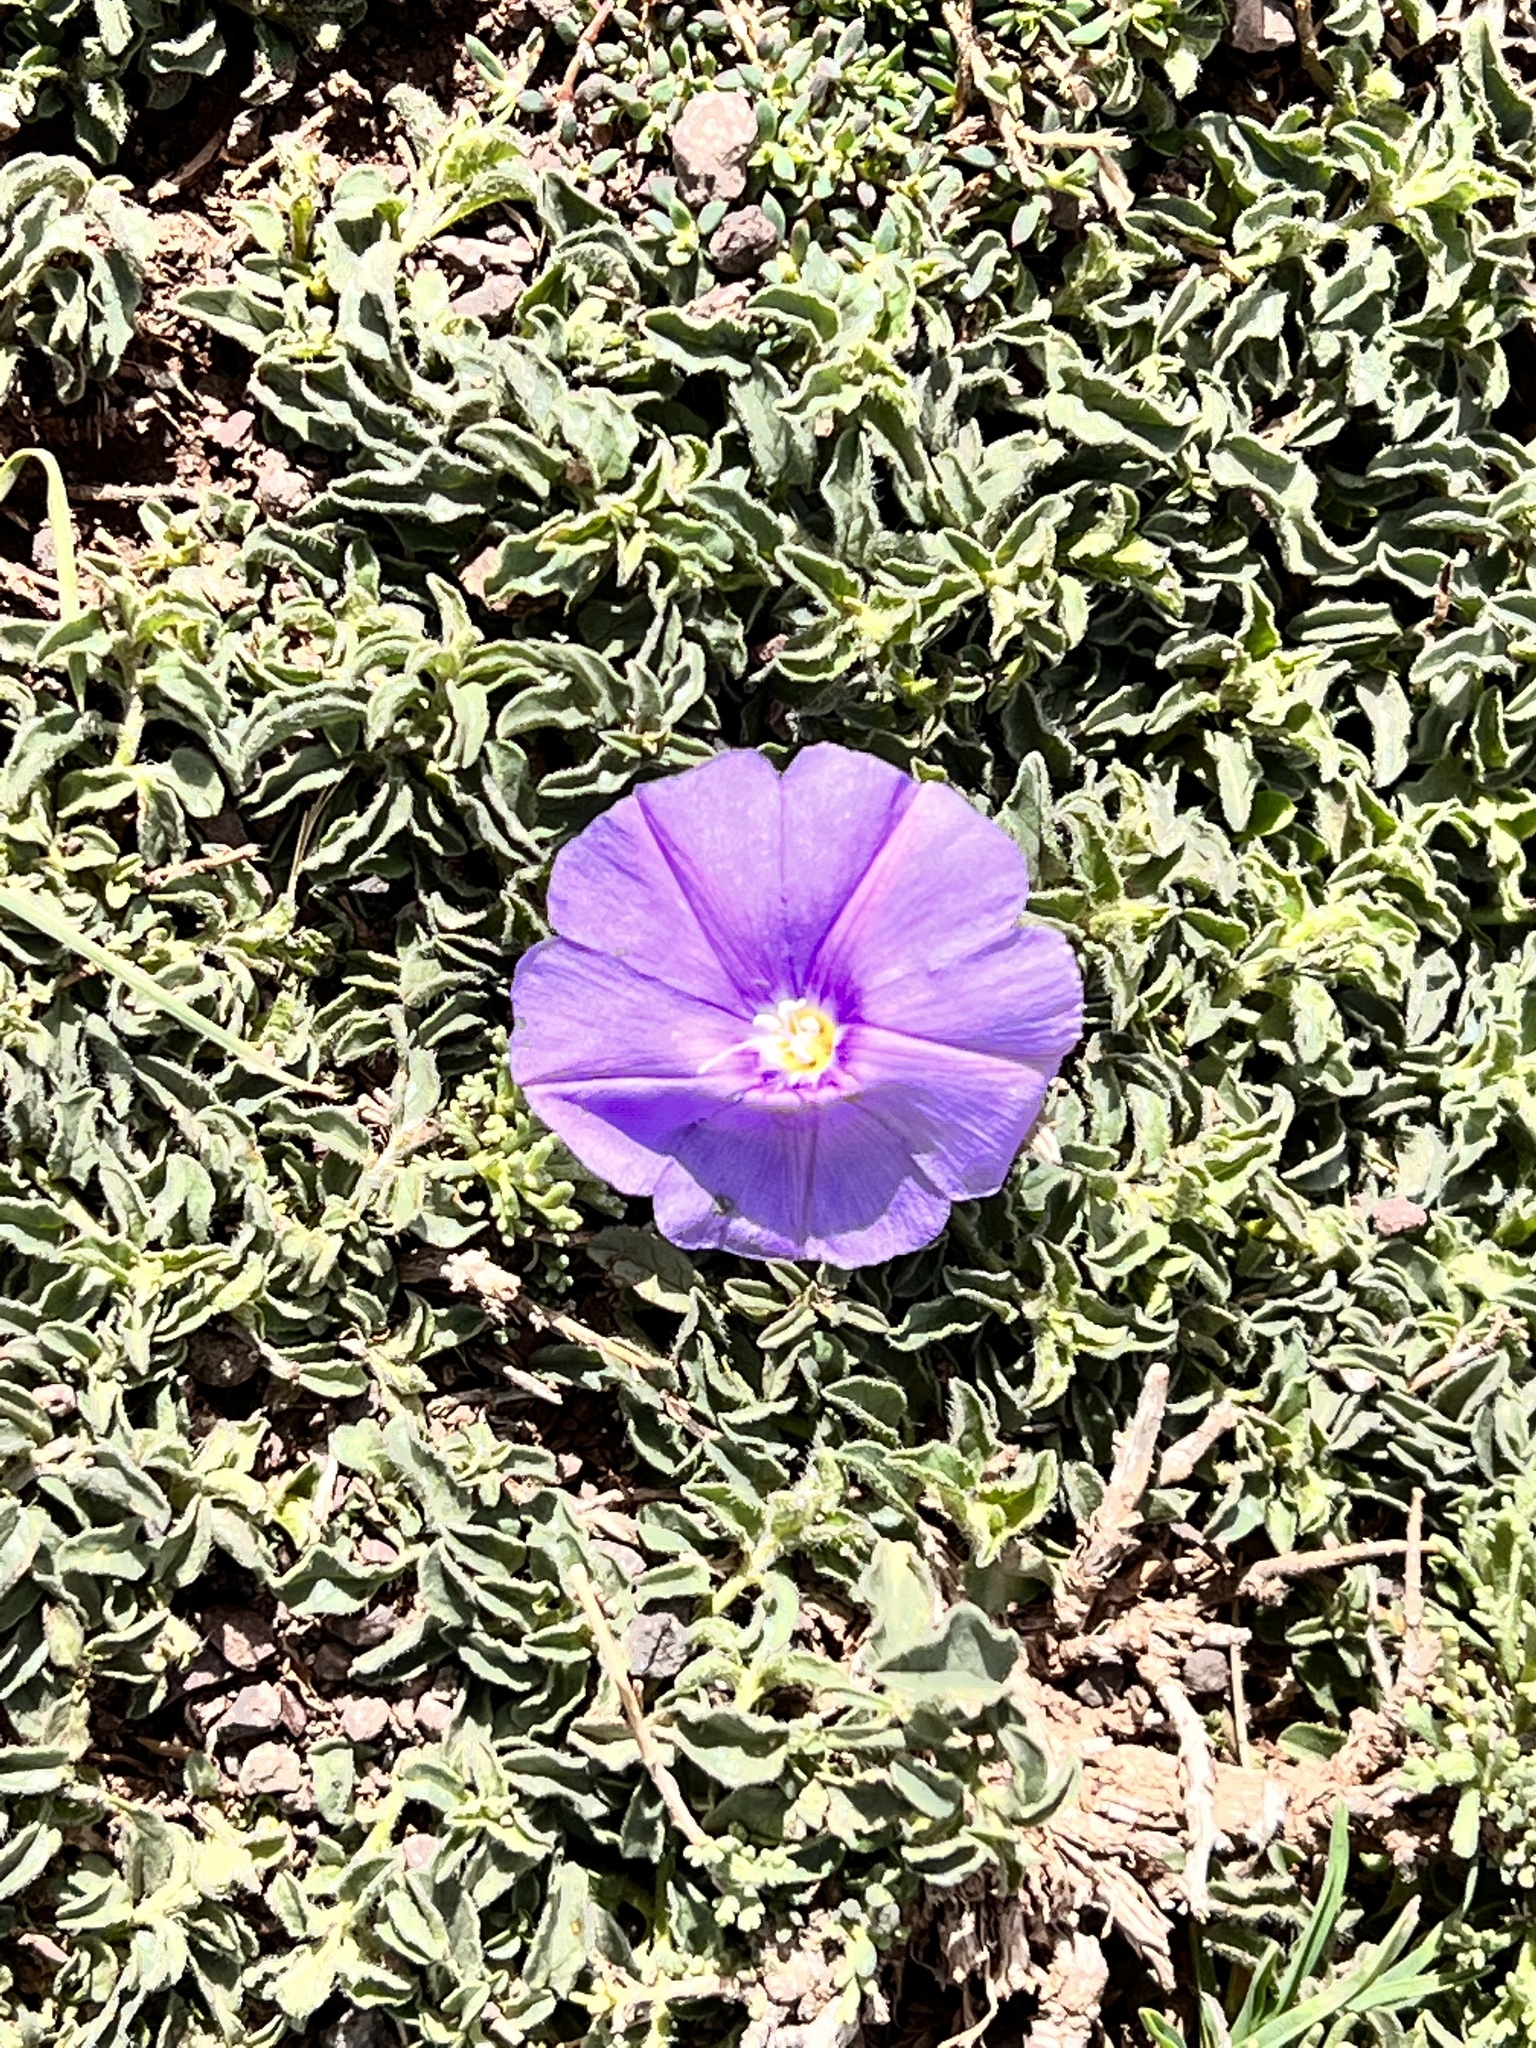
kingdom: Plantae
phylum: Tracheophyta
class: Magnoliopsida
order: Solanales
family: Convolvulaceae
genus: Convolvulus
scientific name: Convolvulus sabatius
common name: Ground blue-convolvulus
